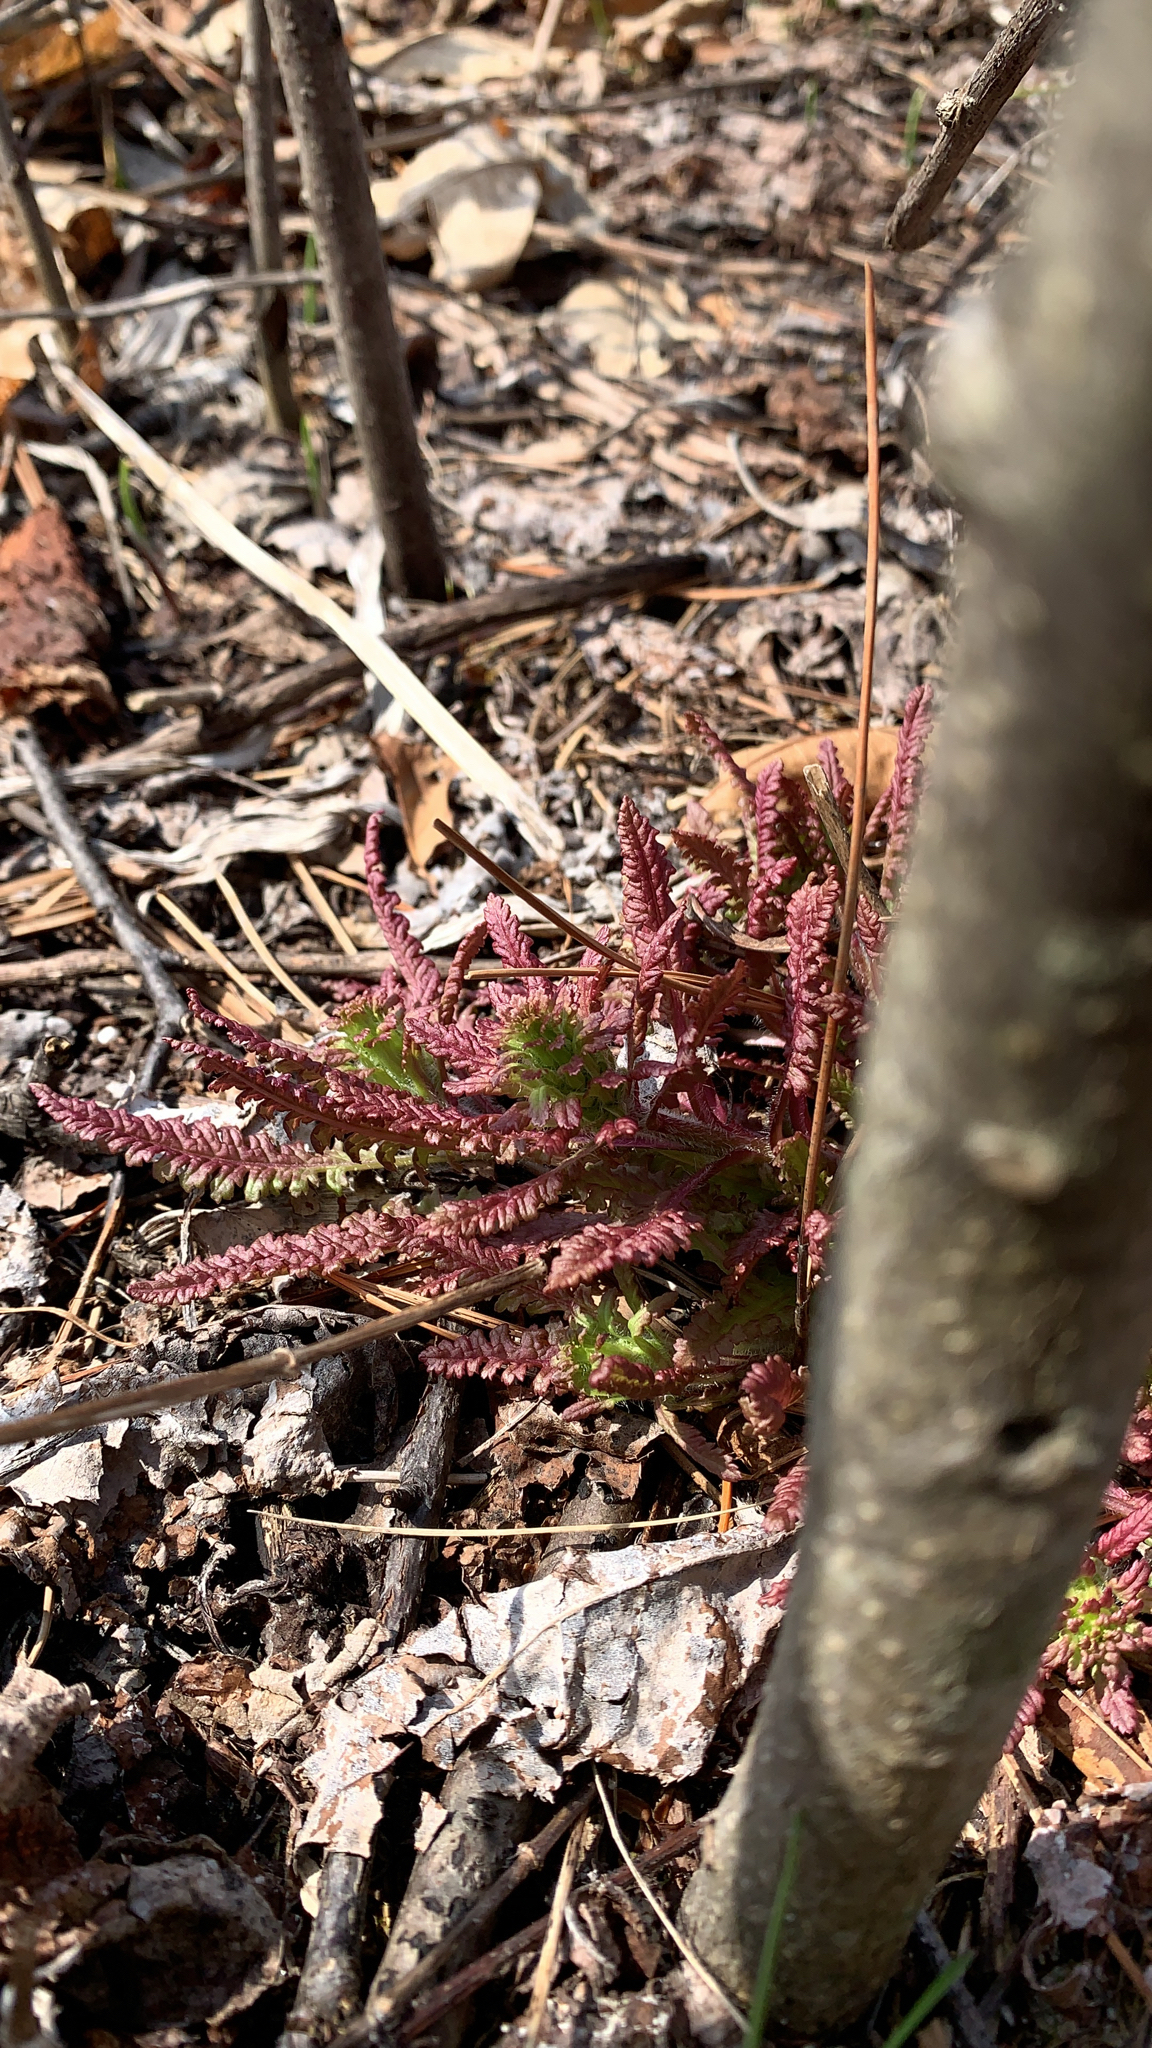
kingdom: Plantae
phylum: Tracheophyta
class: Magnoliopsida
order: Lamiales
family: Orobanchaceae
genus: Pedicularis
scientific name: Pedicularis canadensis
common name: Early lousewort
